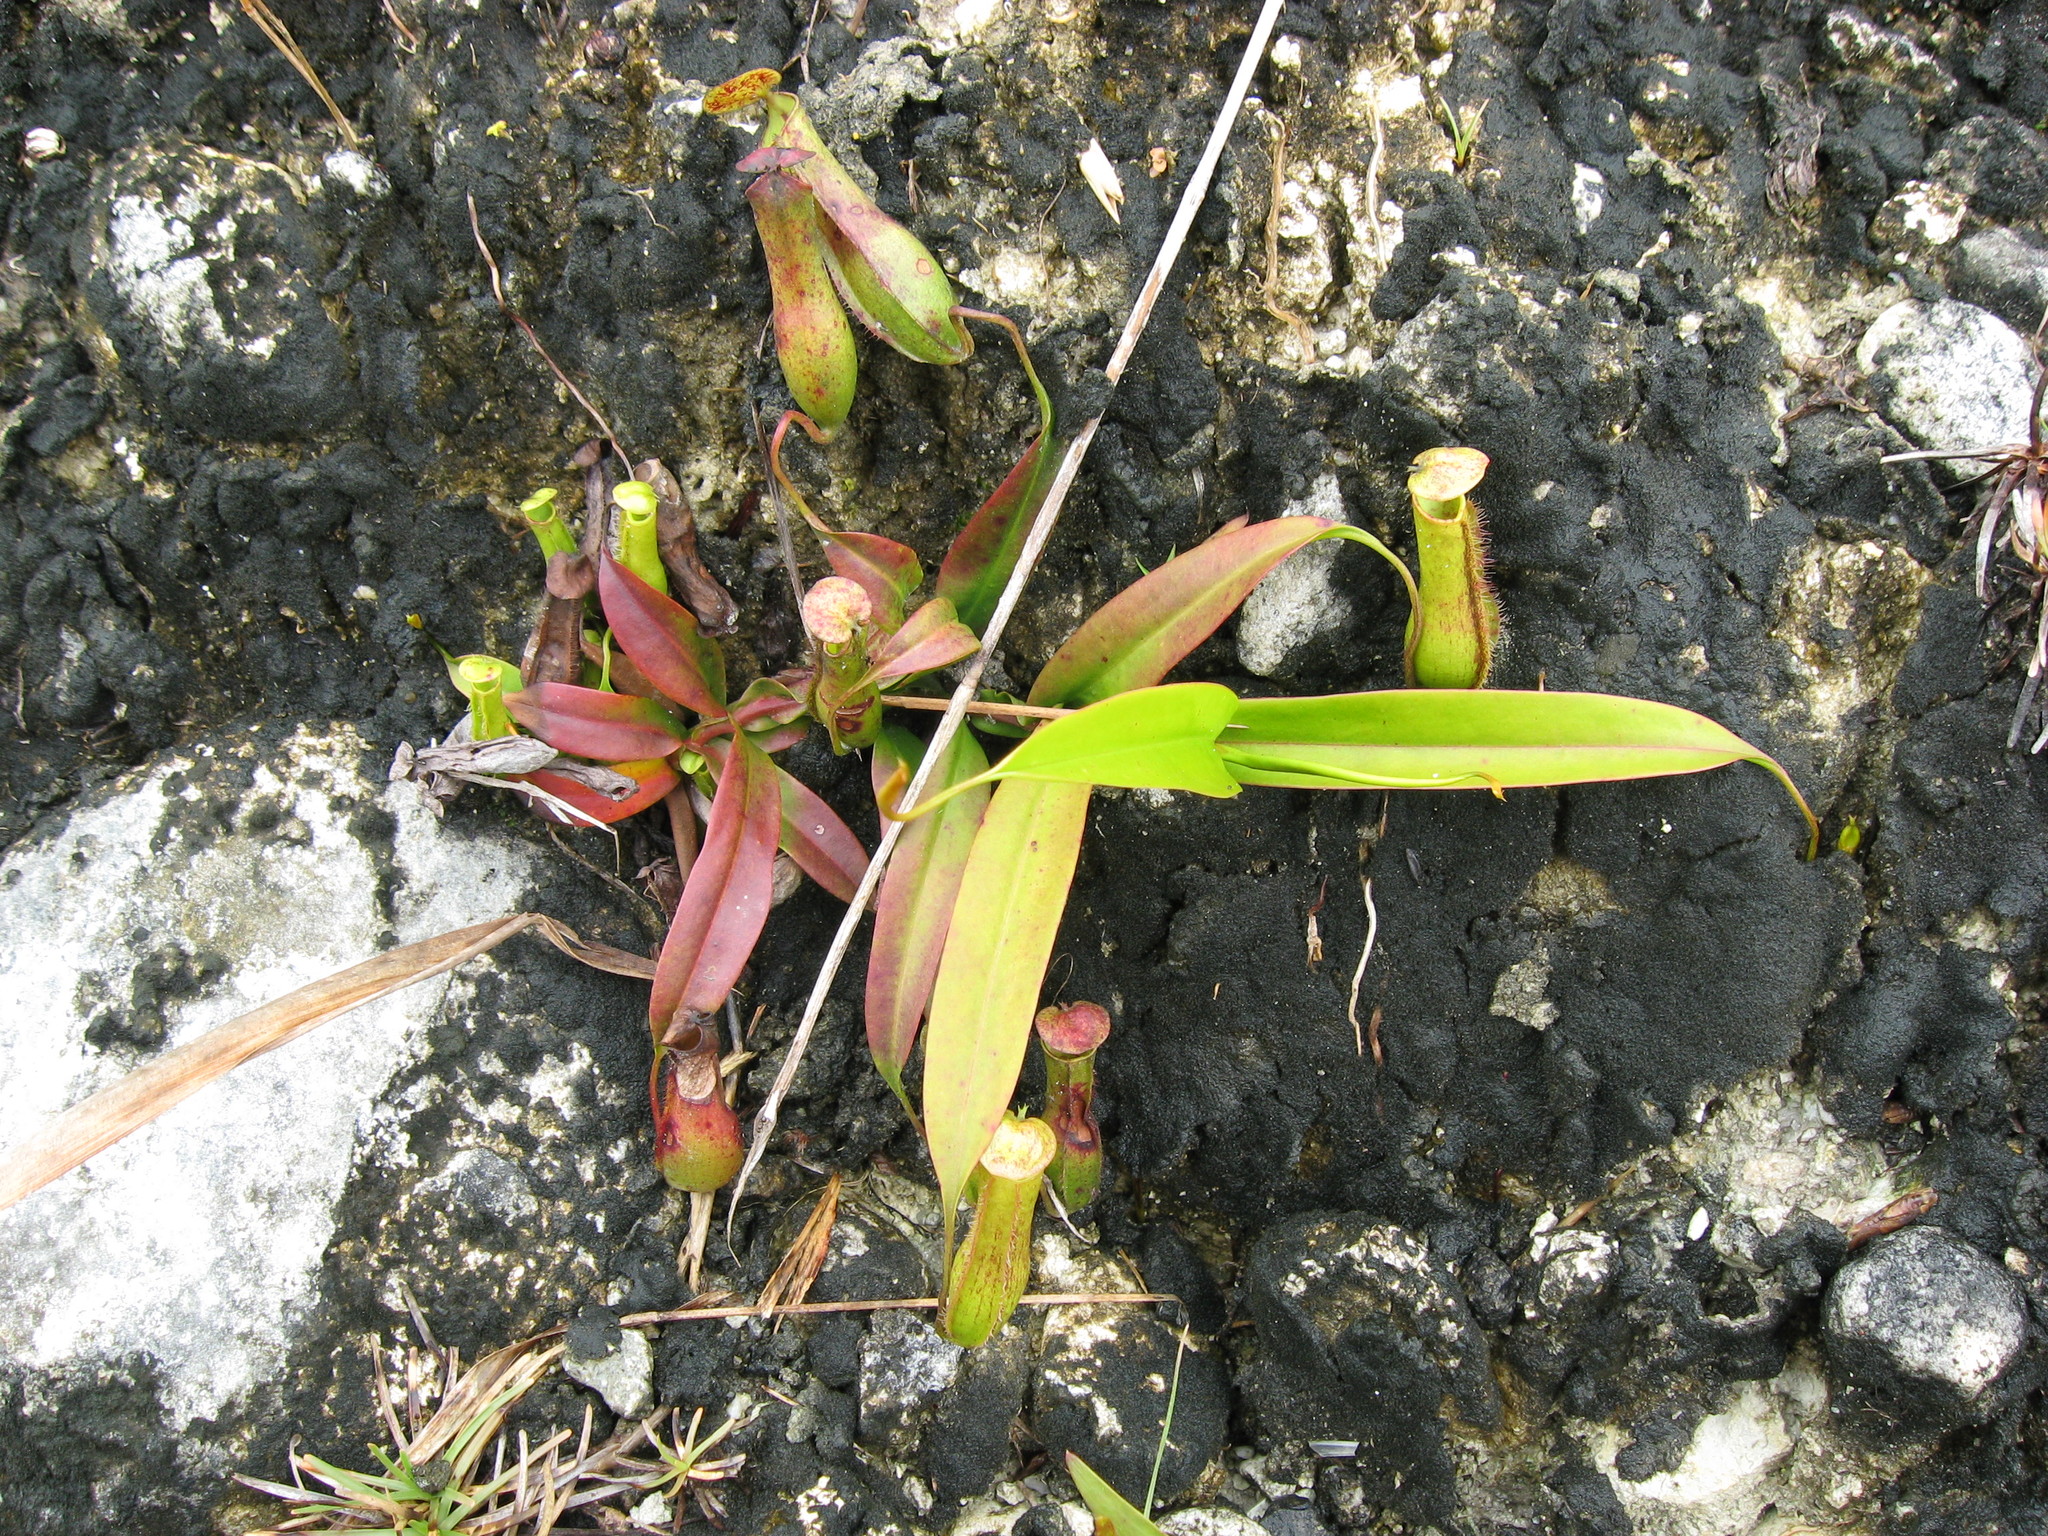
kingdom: Plantae
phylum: Tracheophyta
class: Magnoliopsida
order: Caryophyllales
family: Nepenthaceae
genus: Nepenthes
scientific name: Nepenthes gracilis
